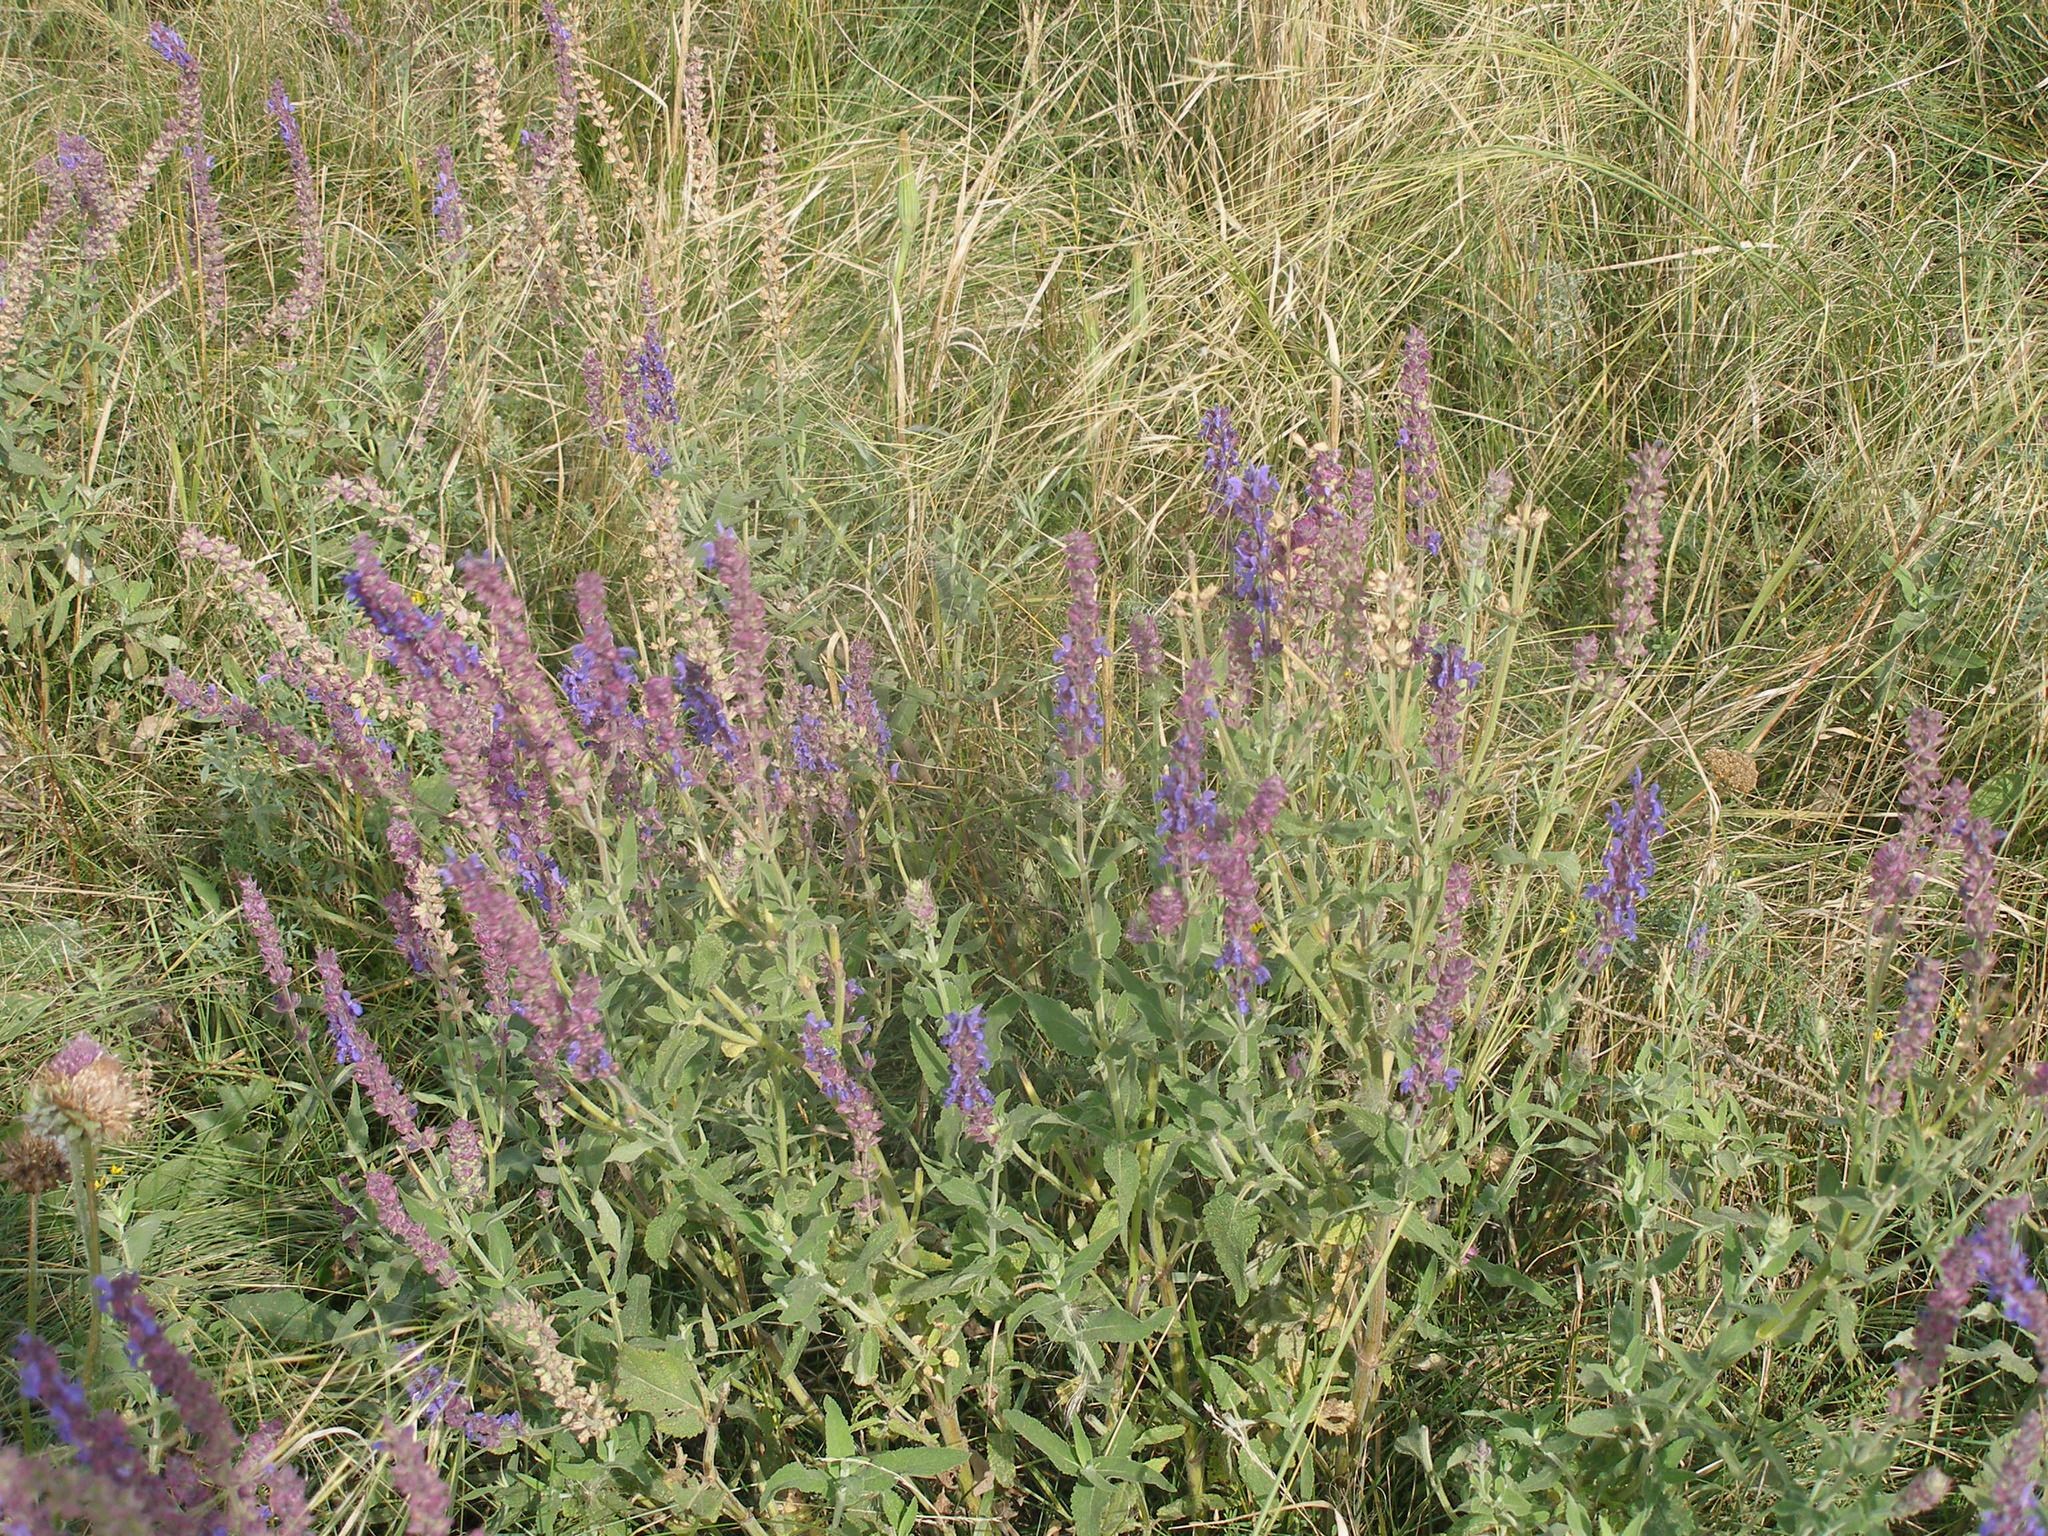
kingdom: Plantae
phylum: Tracheophyta
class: Magnoliopsida
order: Lamiales
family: Lamiaceae
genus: Salvia
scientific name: Salvia nemorosa
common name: Balkan clary
